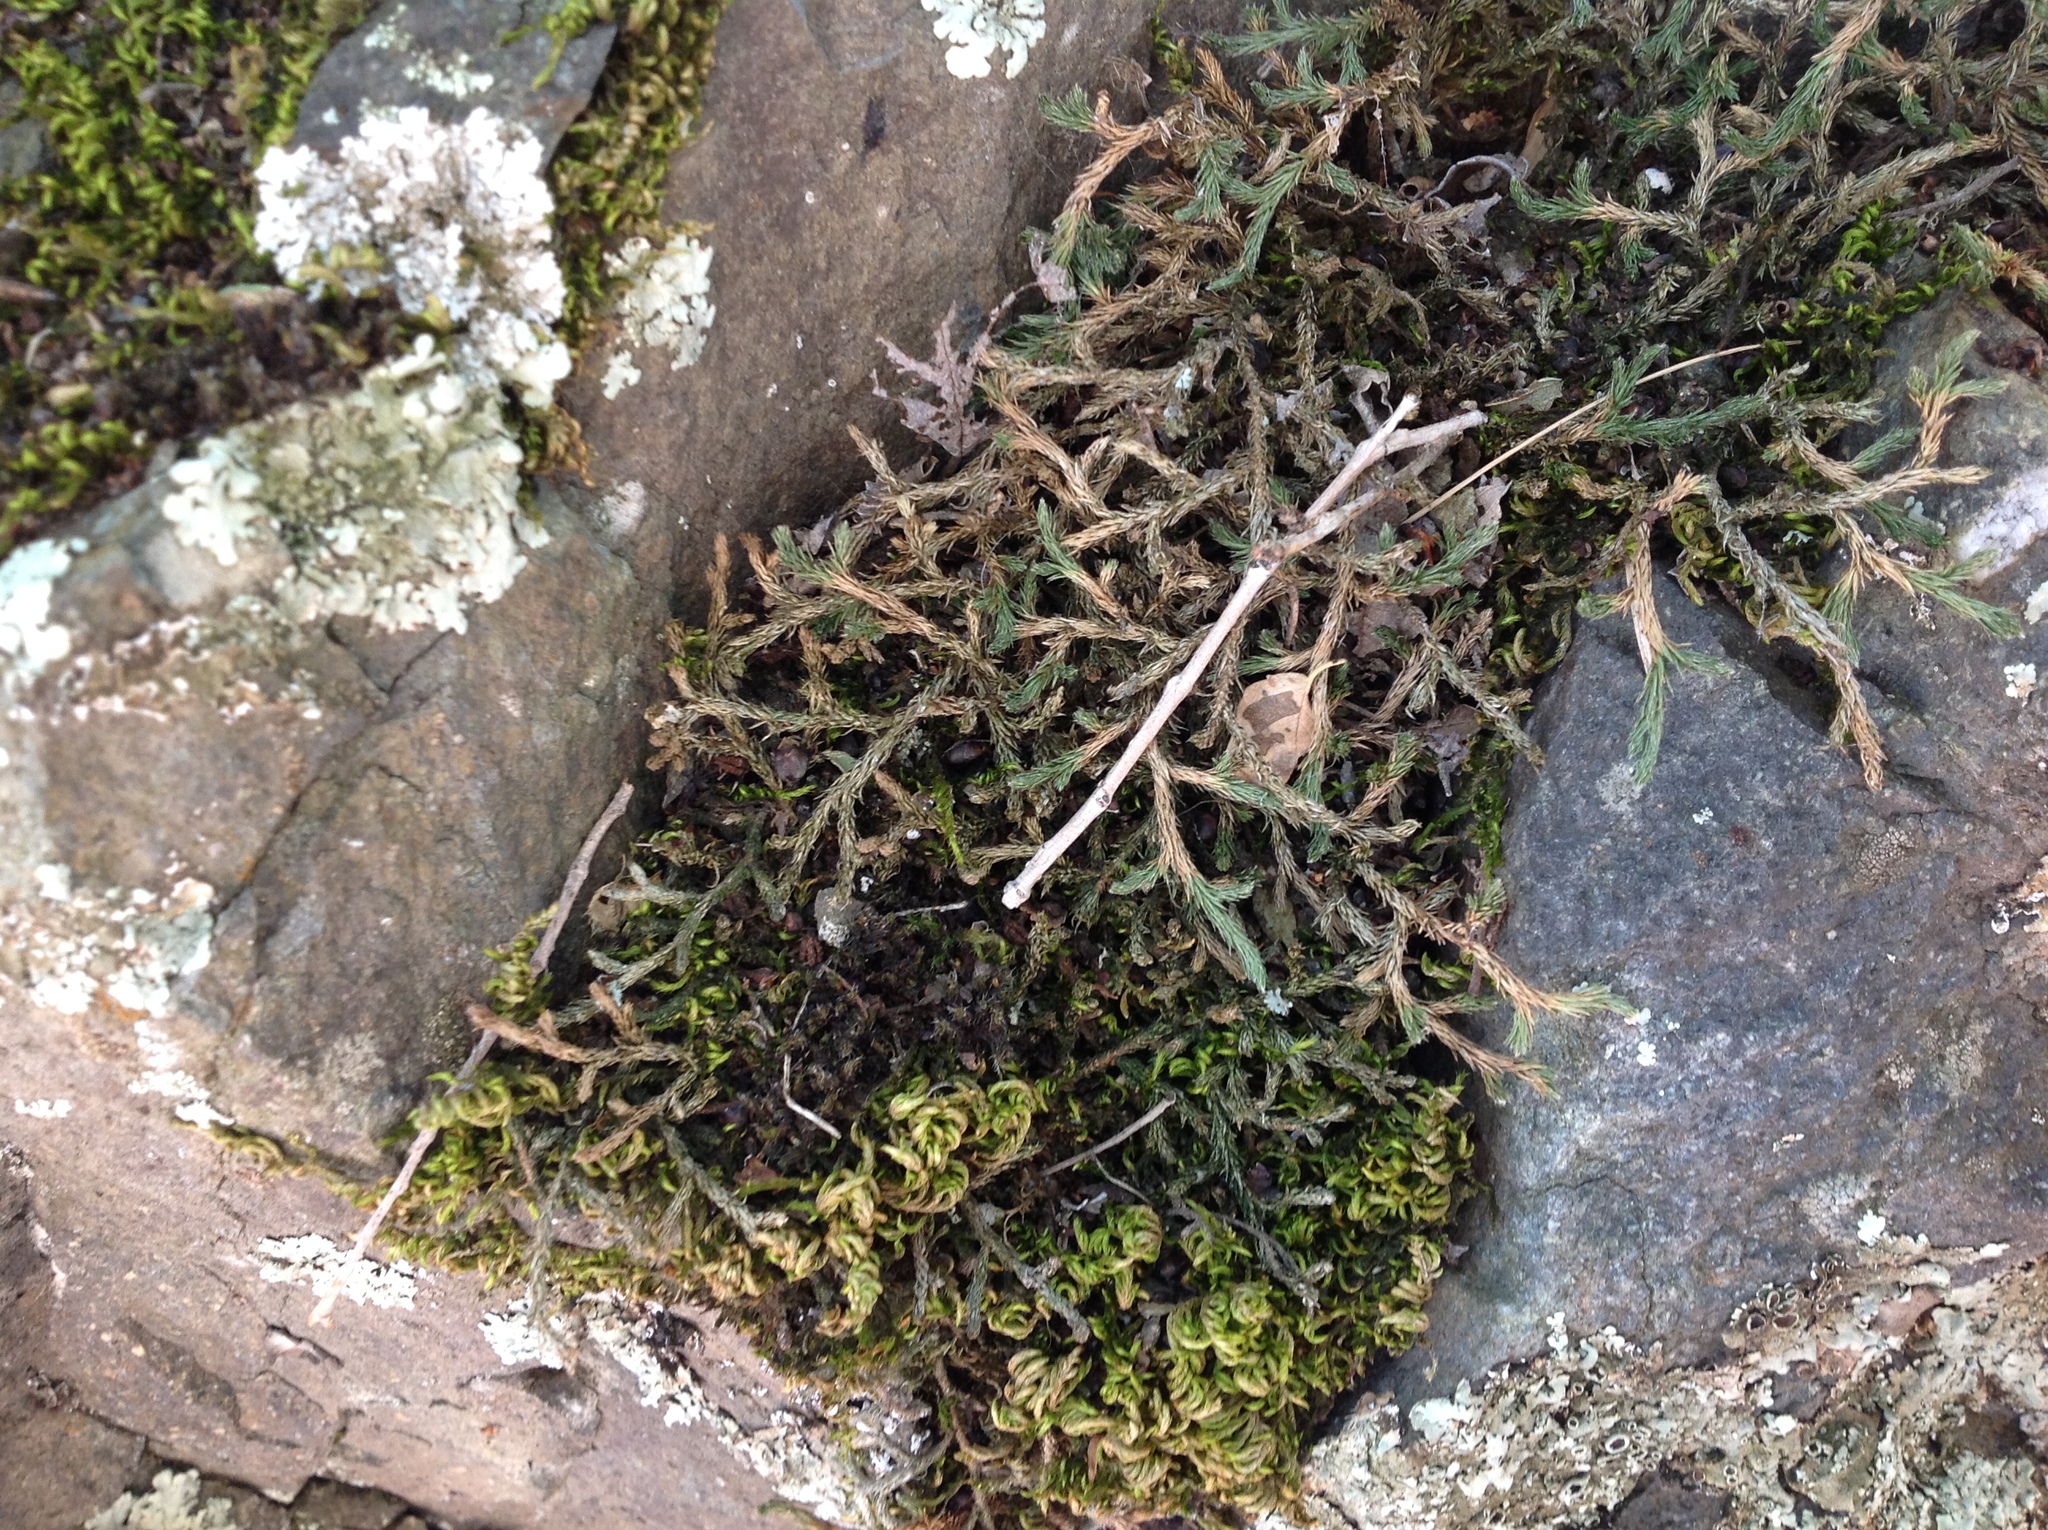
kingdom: Plantae
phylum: Tracheophyta
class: Lycopodiopsida
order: Selaginellales
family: Selaginellaceae
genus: Selaginella
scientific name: Selaginella wallacei
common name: Wallace's selaginella
